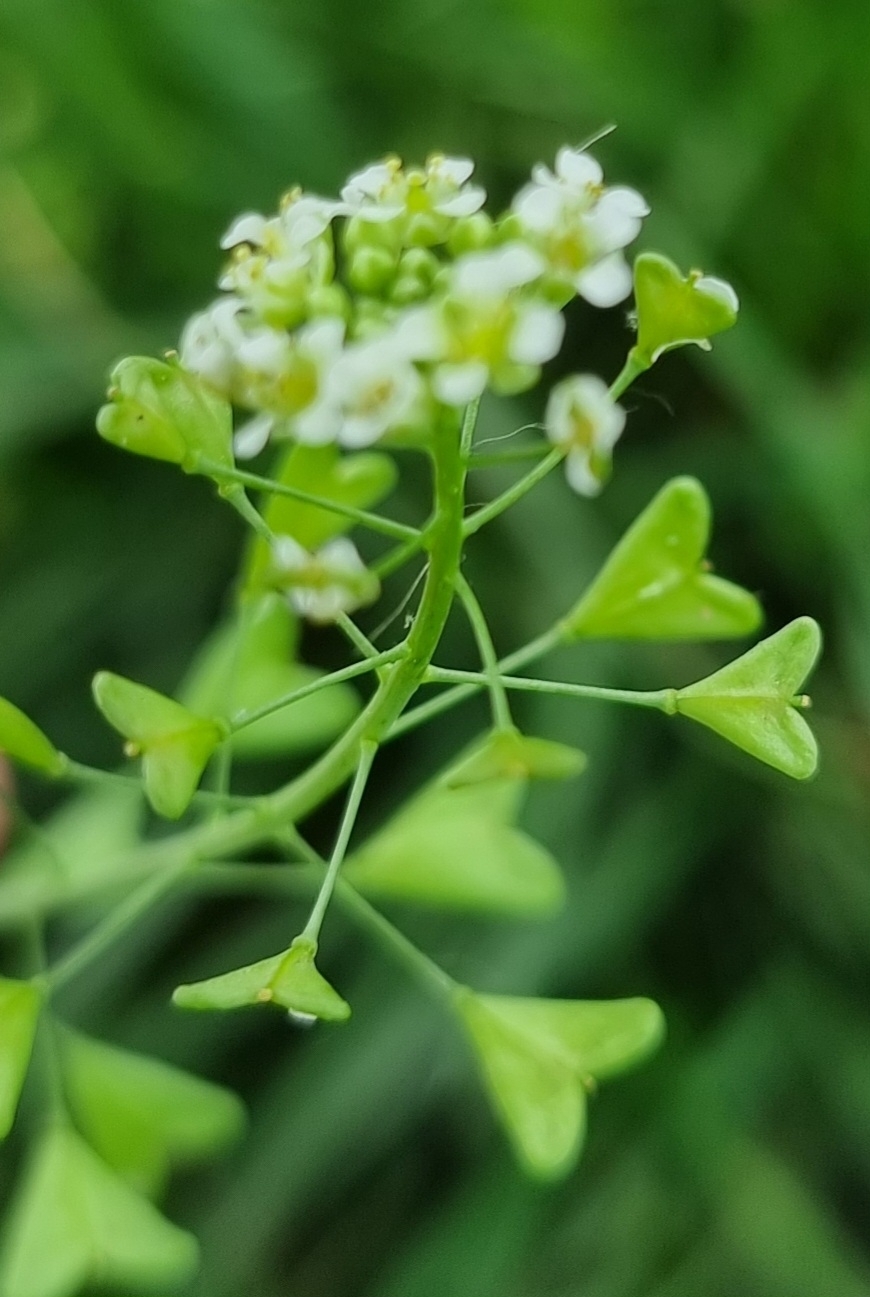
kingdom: Plantae
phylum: Tracheophyta
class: Magnoliopsida
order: Brassicales
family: Brassicaceae
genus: Capsella
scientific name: Capsella bursa-pastoris
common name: Shepherd's purse
